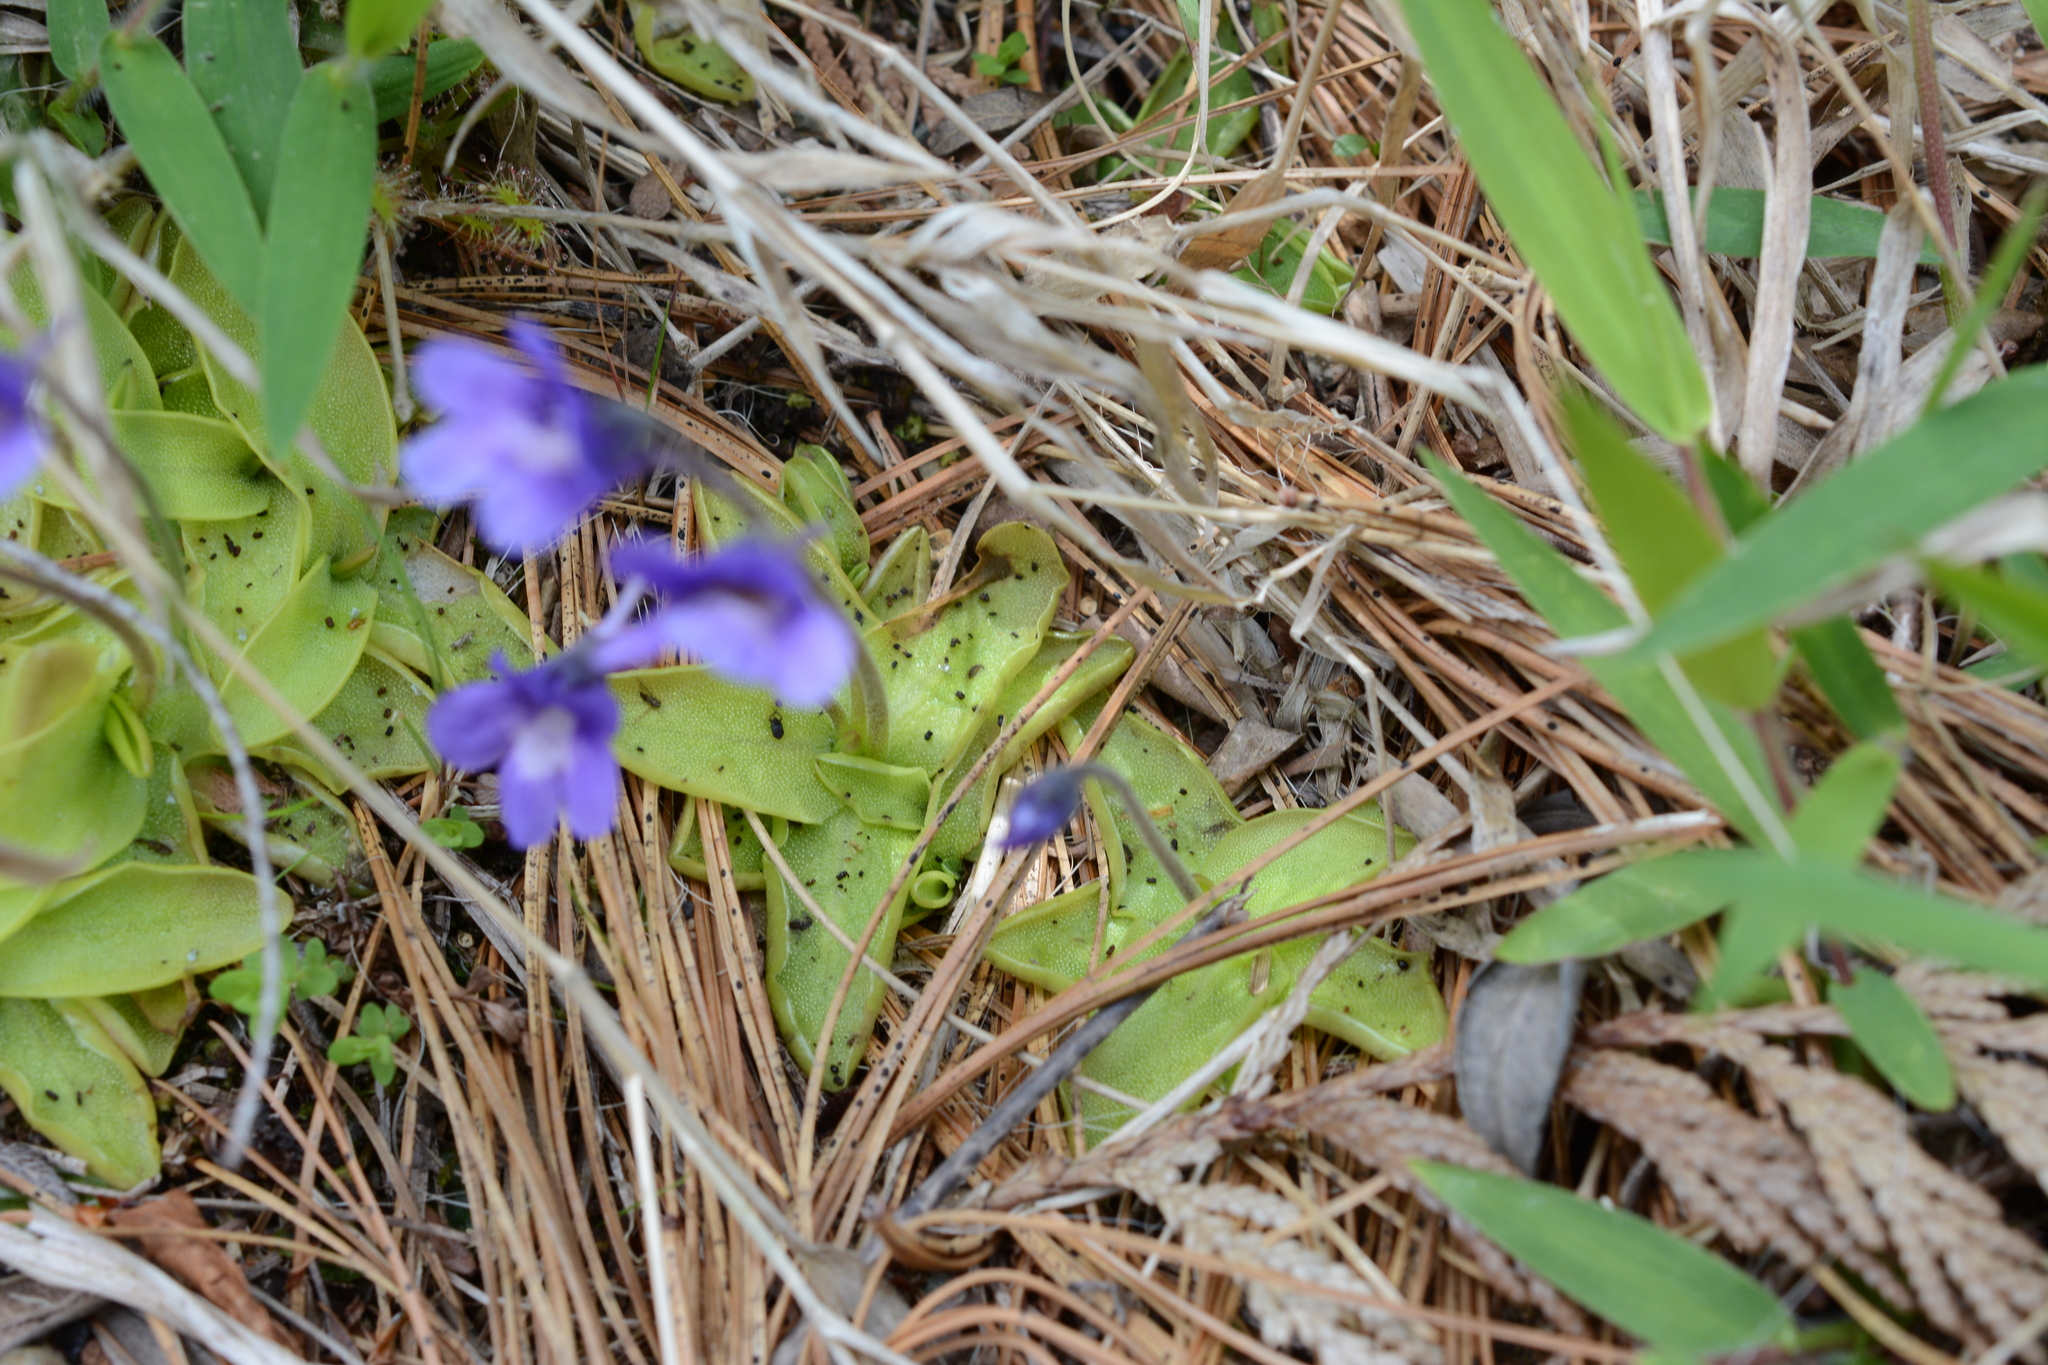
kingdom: Plantae
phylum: Tracheophyta
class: Magnoliopsida
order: Lamiales
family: Lentibulariaceae
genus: Pinguicula
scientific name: Pinguicula vulgaris
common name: Common butterwort
